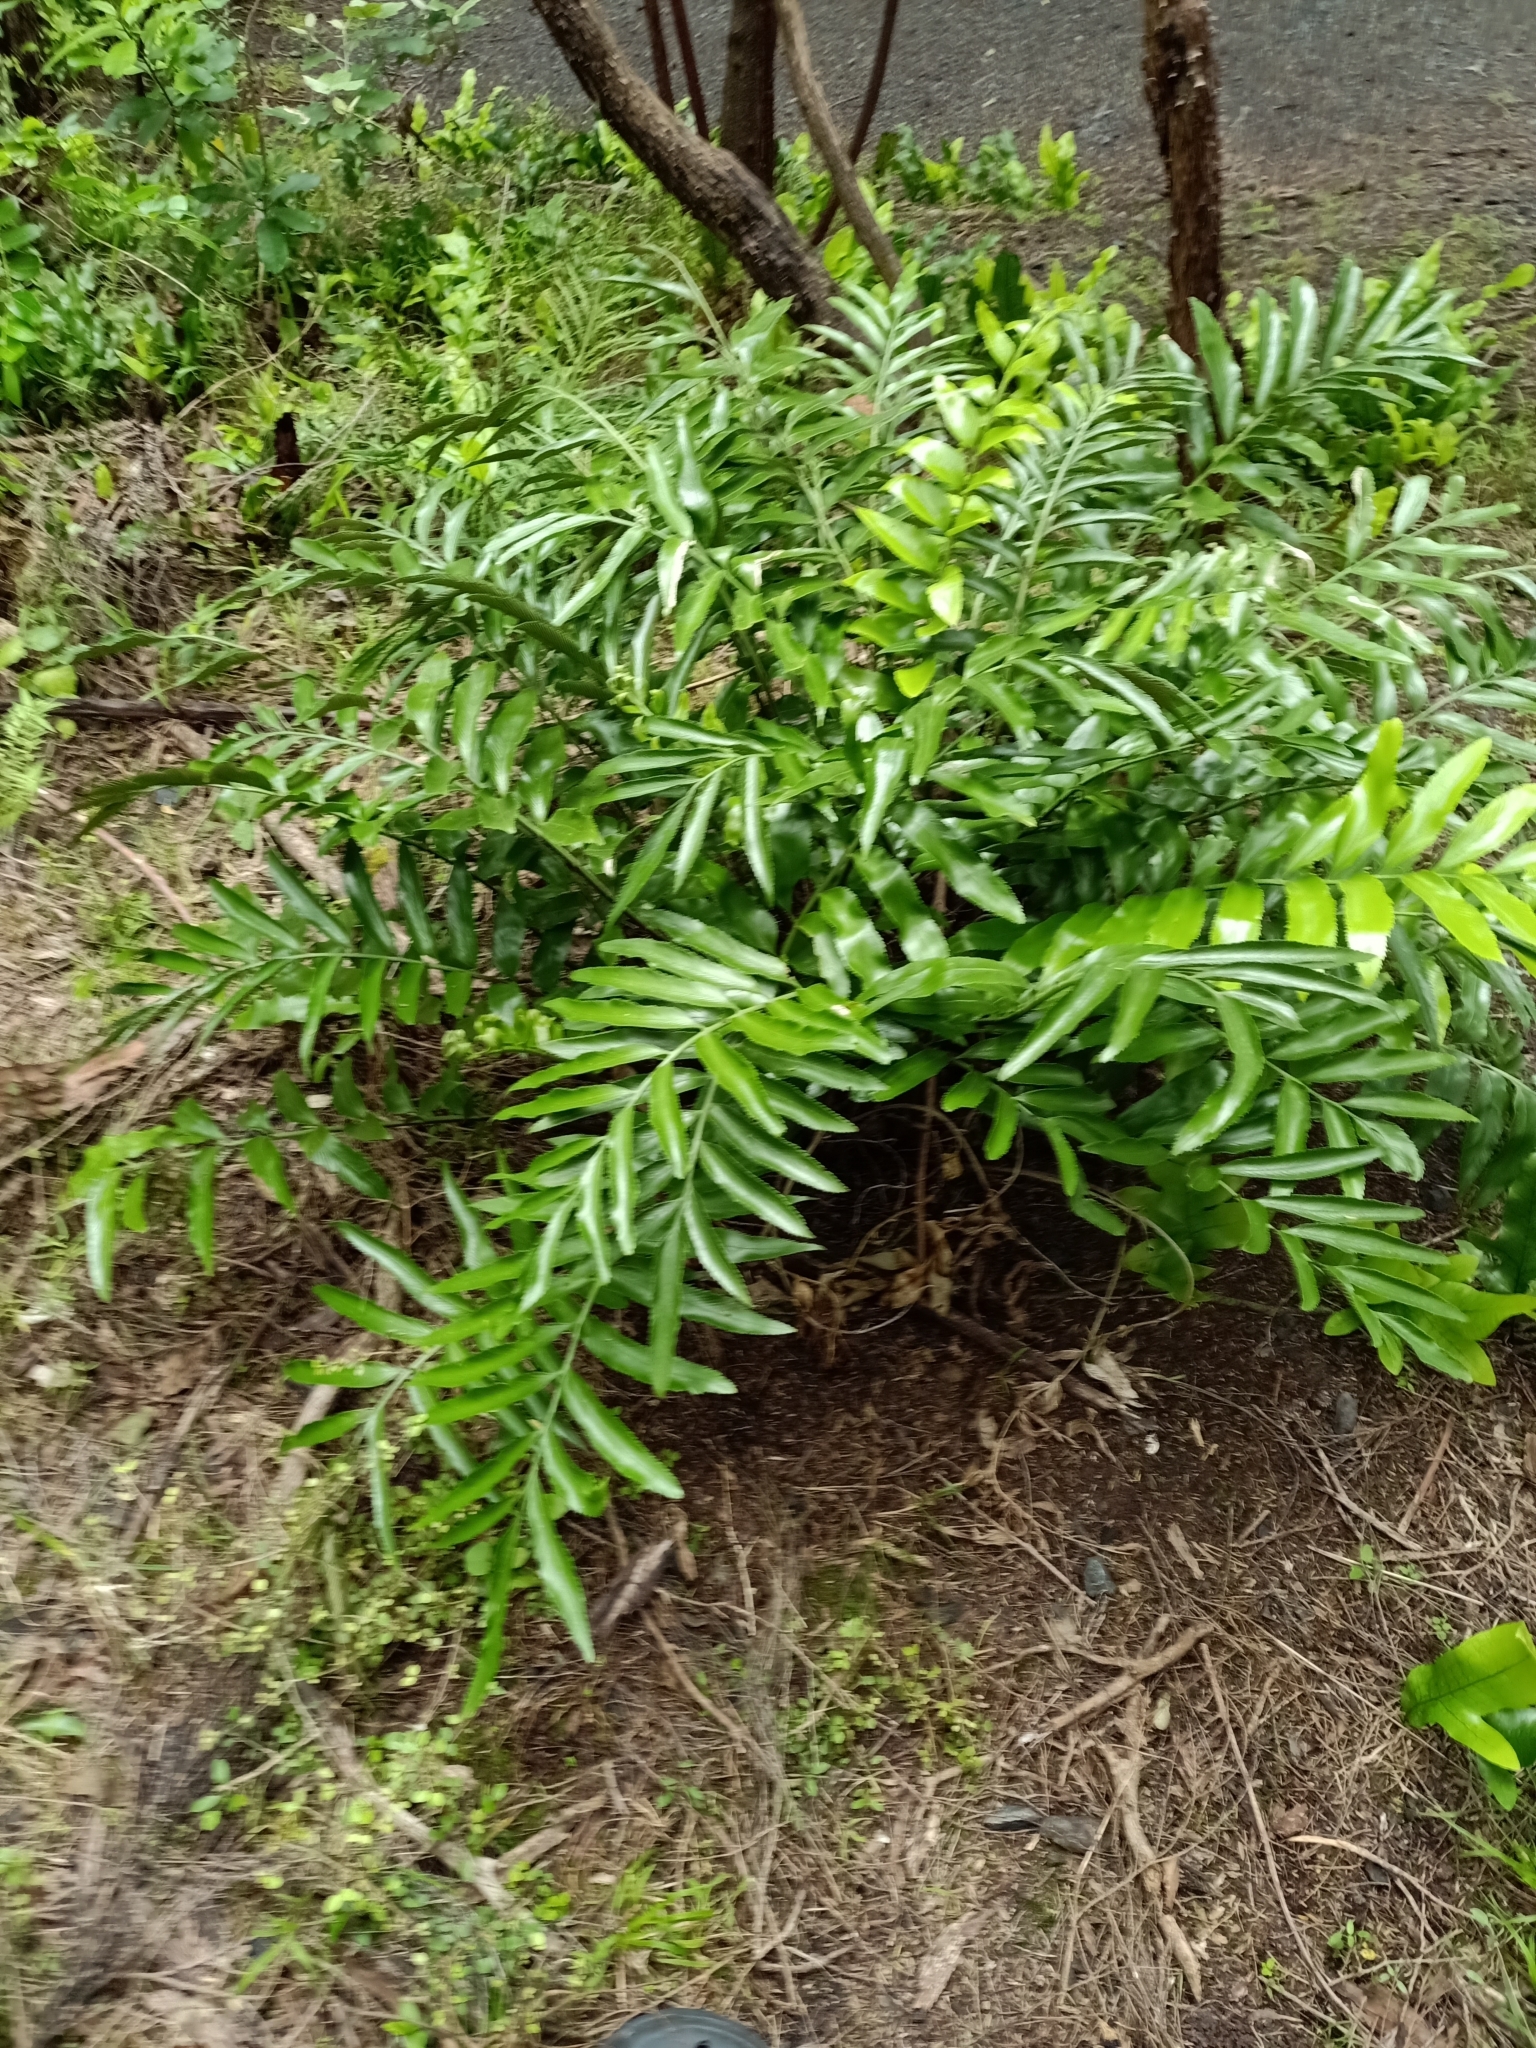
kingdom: Plantae
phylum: Tracheophyta
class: Polypodiopsida
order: Polypodiales
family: Aspleniaceae
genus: Asplenium
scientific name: Asplenium oblongifolium
